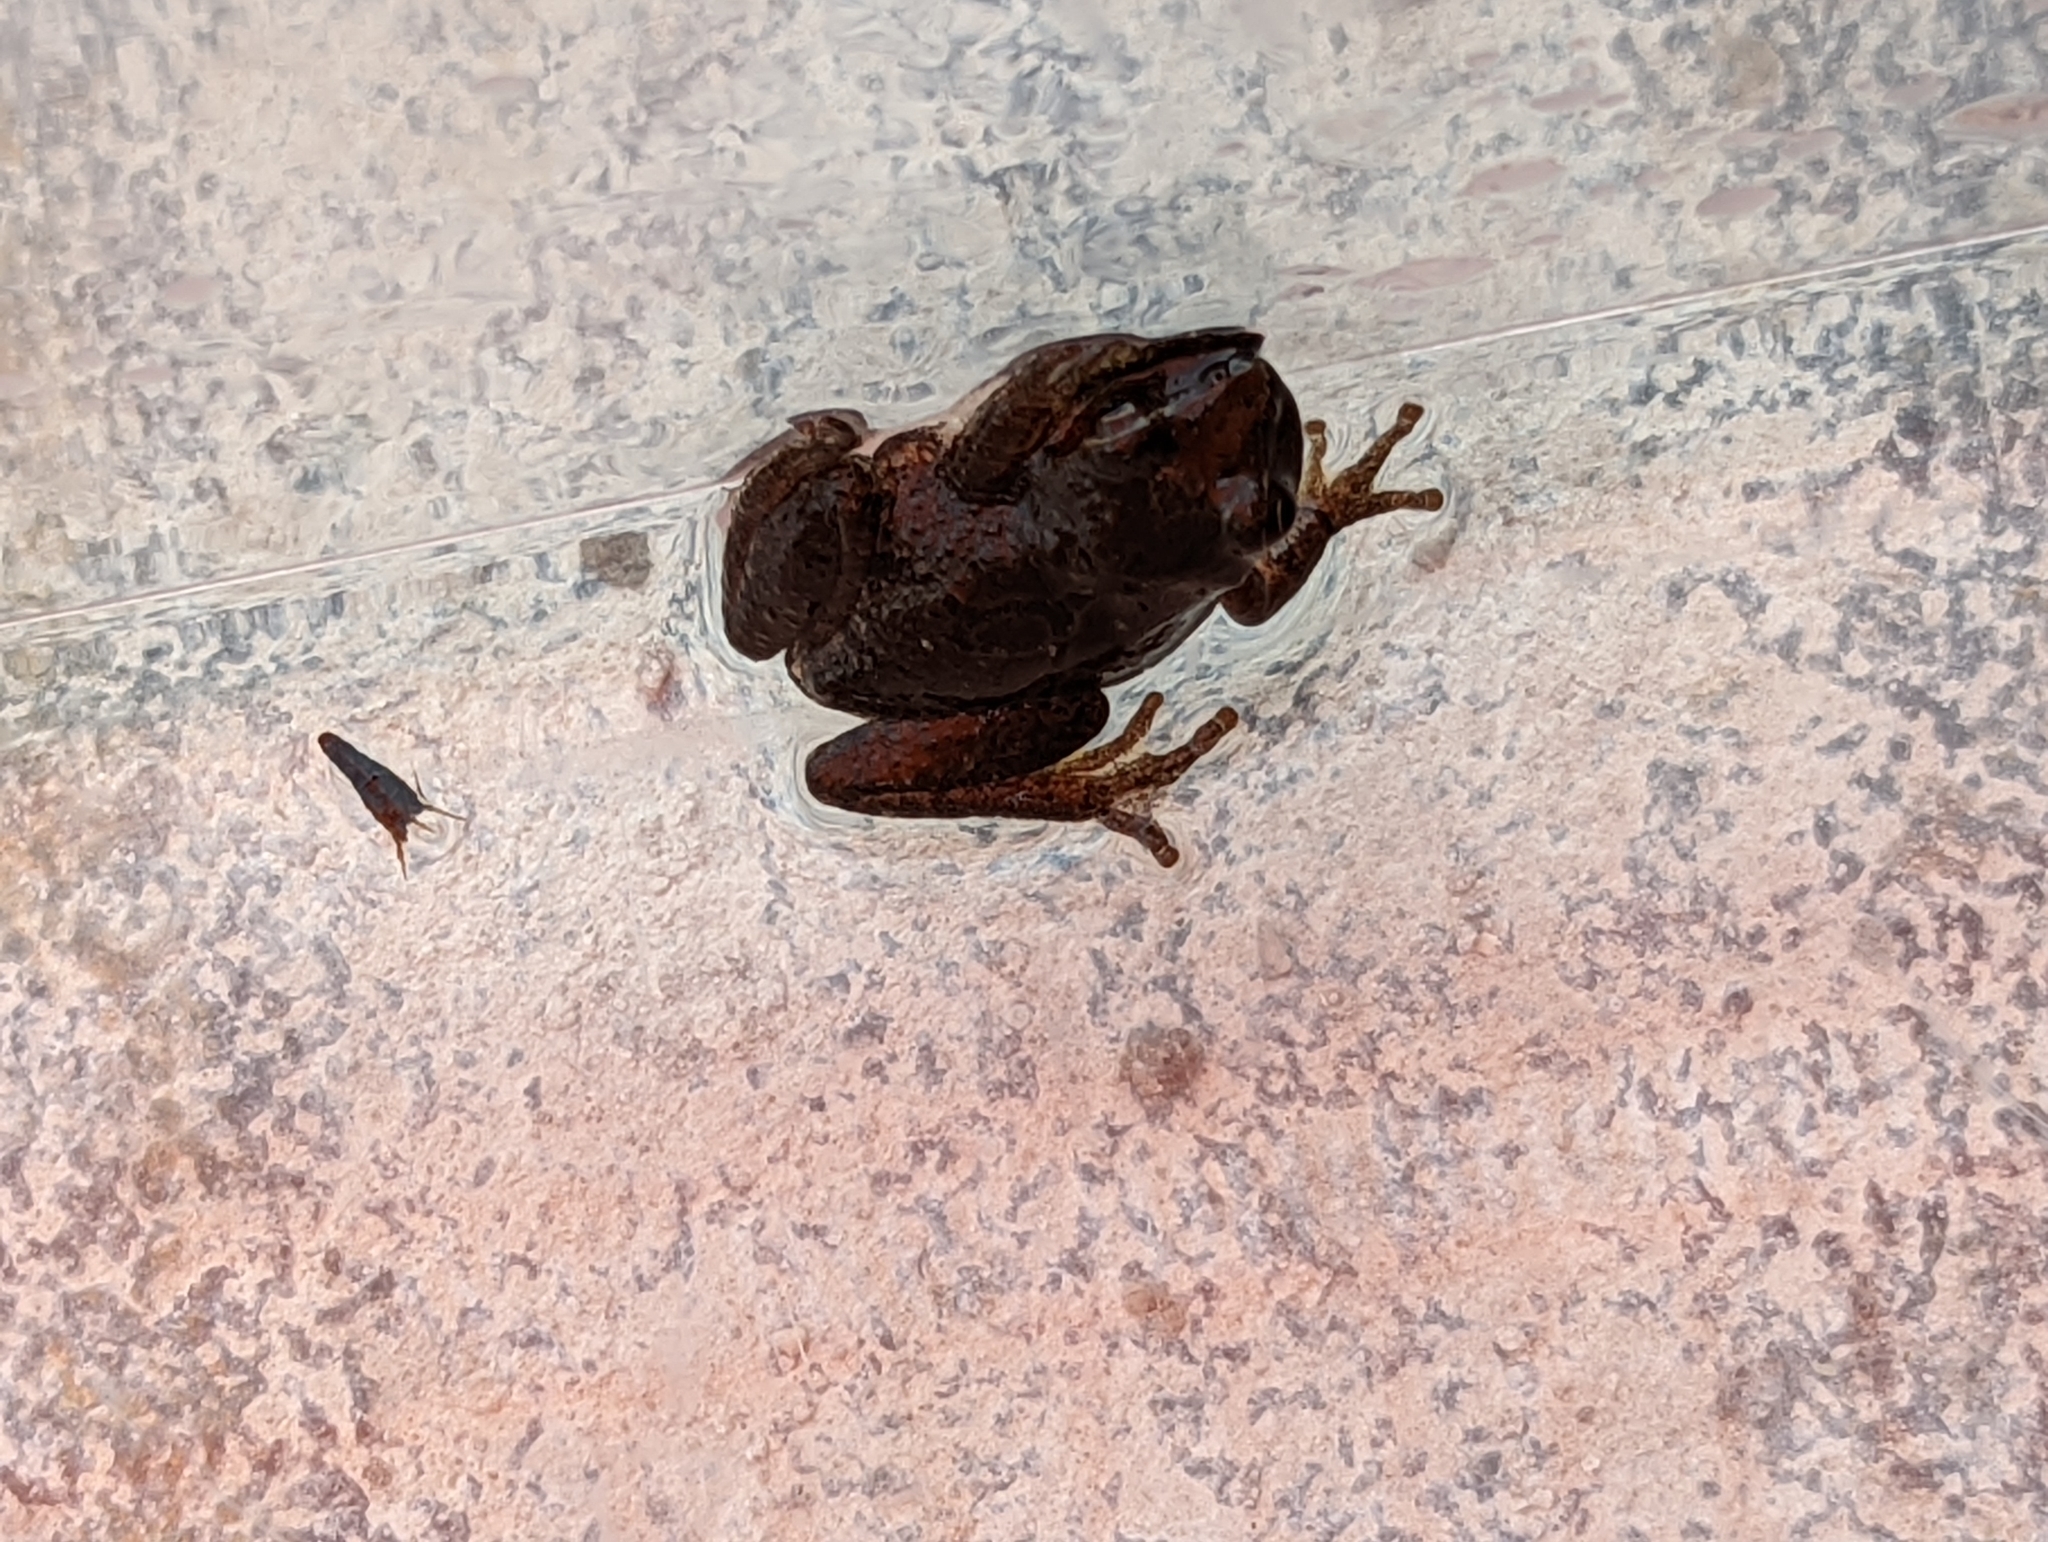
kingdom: Animalia
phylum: Chordata
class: Amphibia
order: Anura
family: Hylidae
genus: Pseudacris
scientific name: Pseudacris crucifer
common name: Spring peeper
